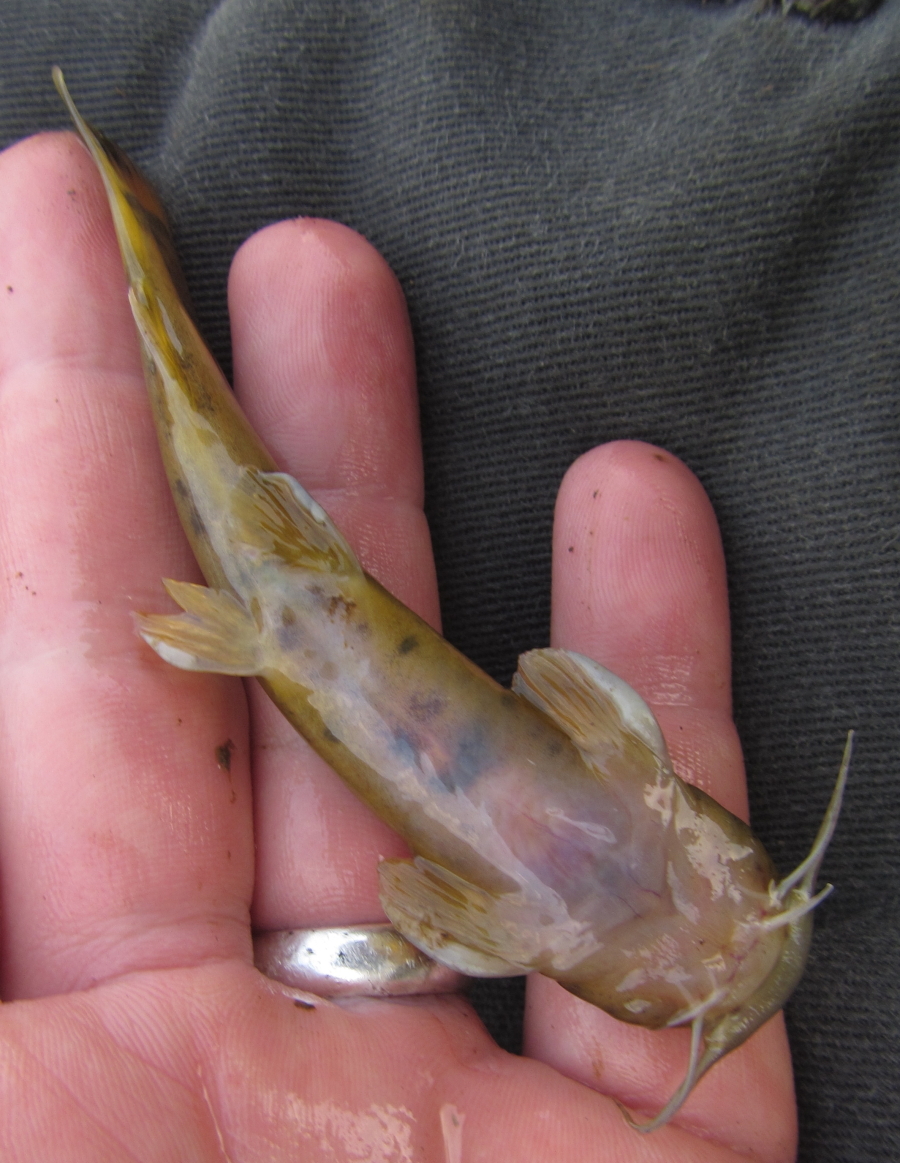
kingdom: Animalia
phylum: Chordata
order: Siluriformes
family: Amphiliidae
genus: Amphilius
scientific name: Amphilius uranoscopus
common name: Stargazer mountain catfish
